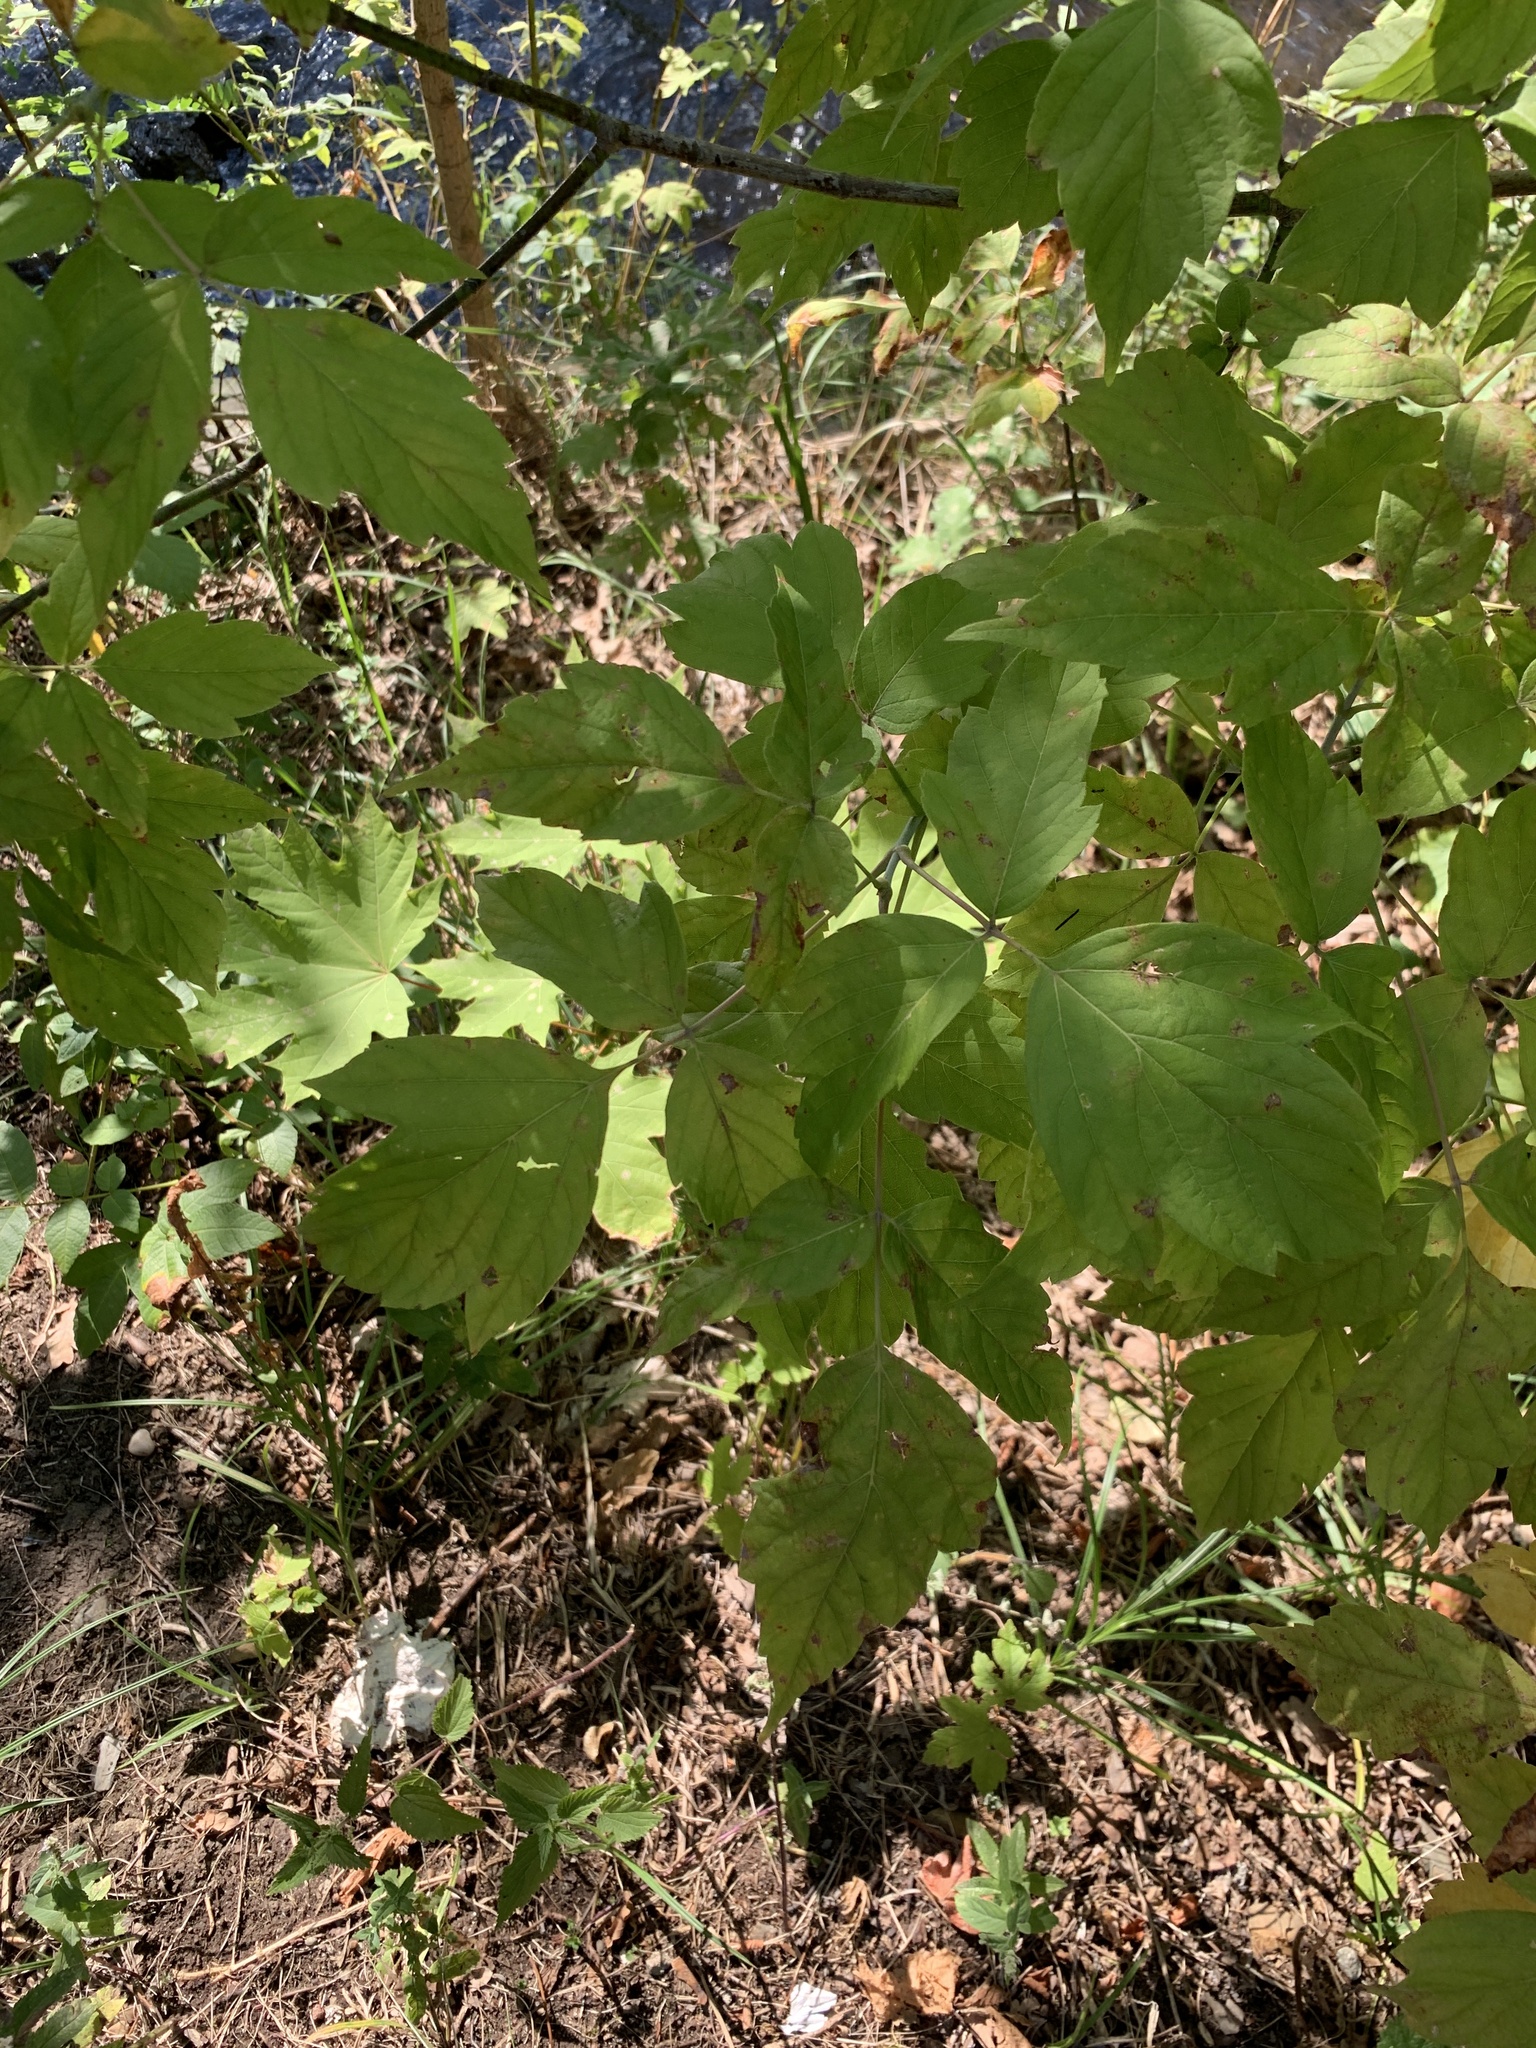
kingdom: Plantae
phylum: Tracheophyta
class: Magnoliopsida
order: Sapindales
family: Sapindaceae
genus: Acer
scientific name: Acer negundo
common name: Ashleaf maple
